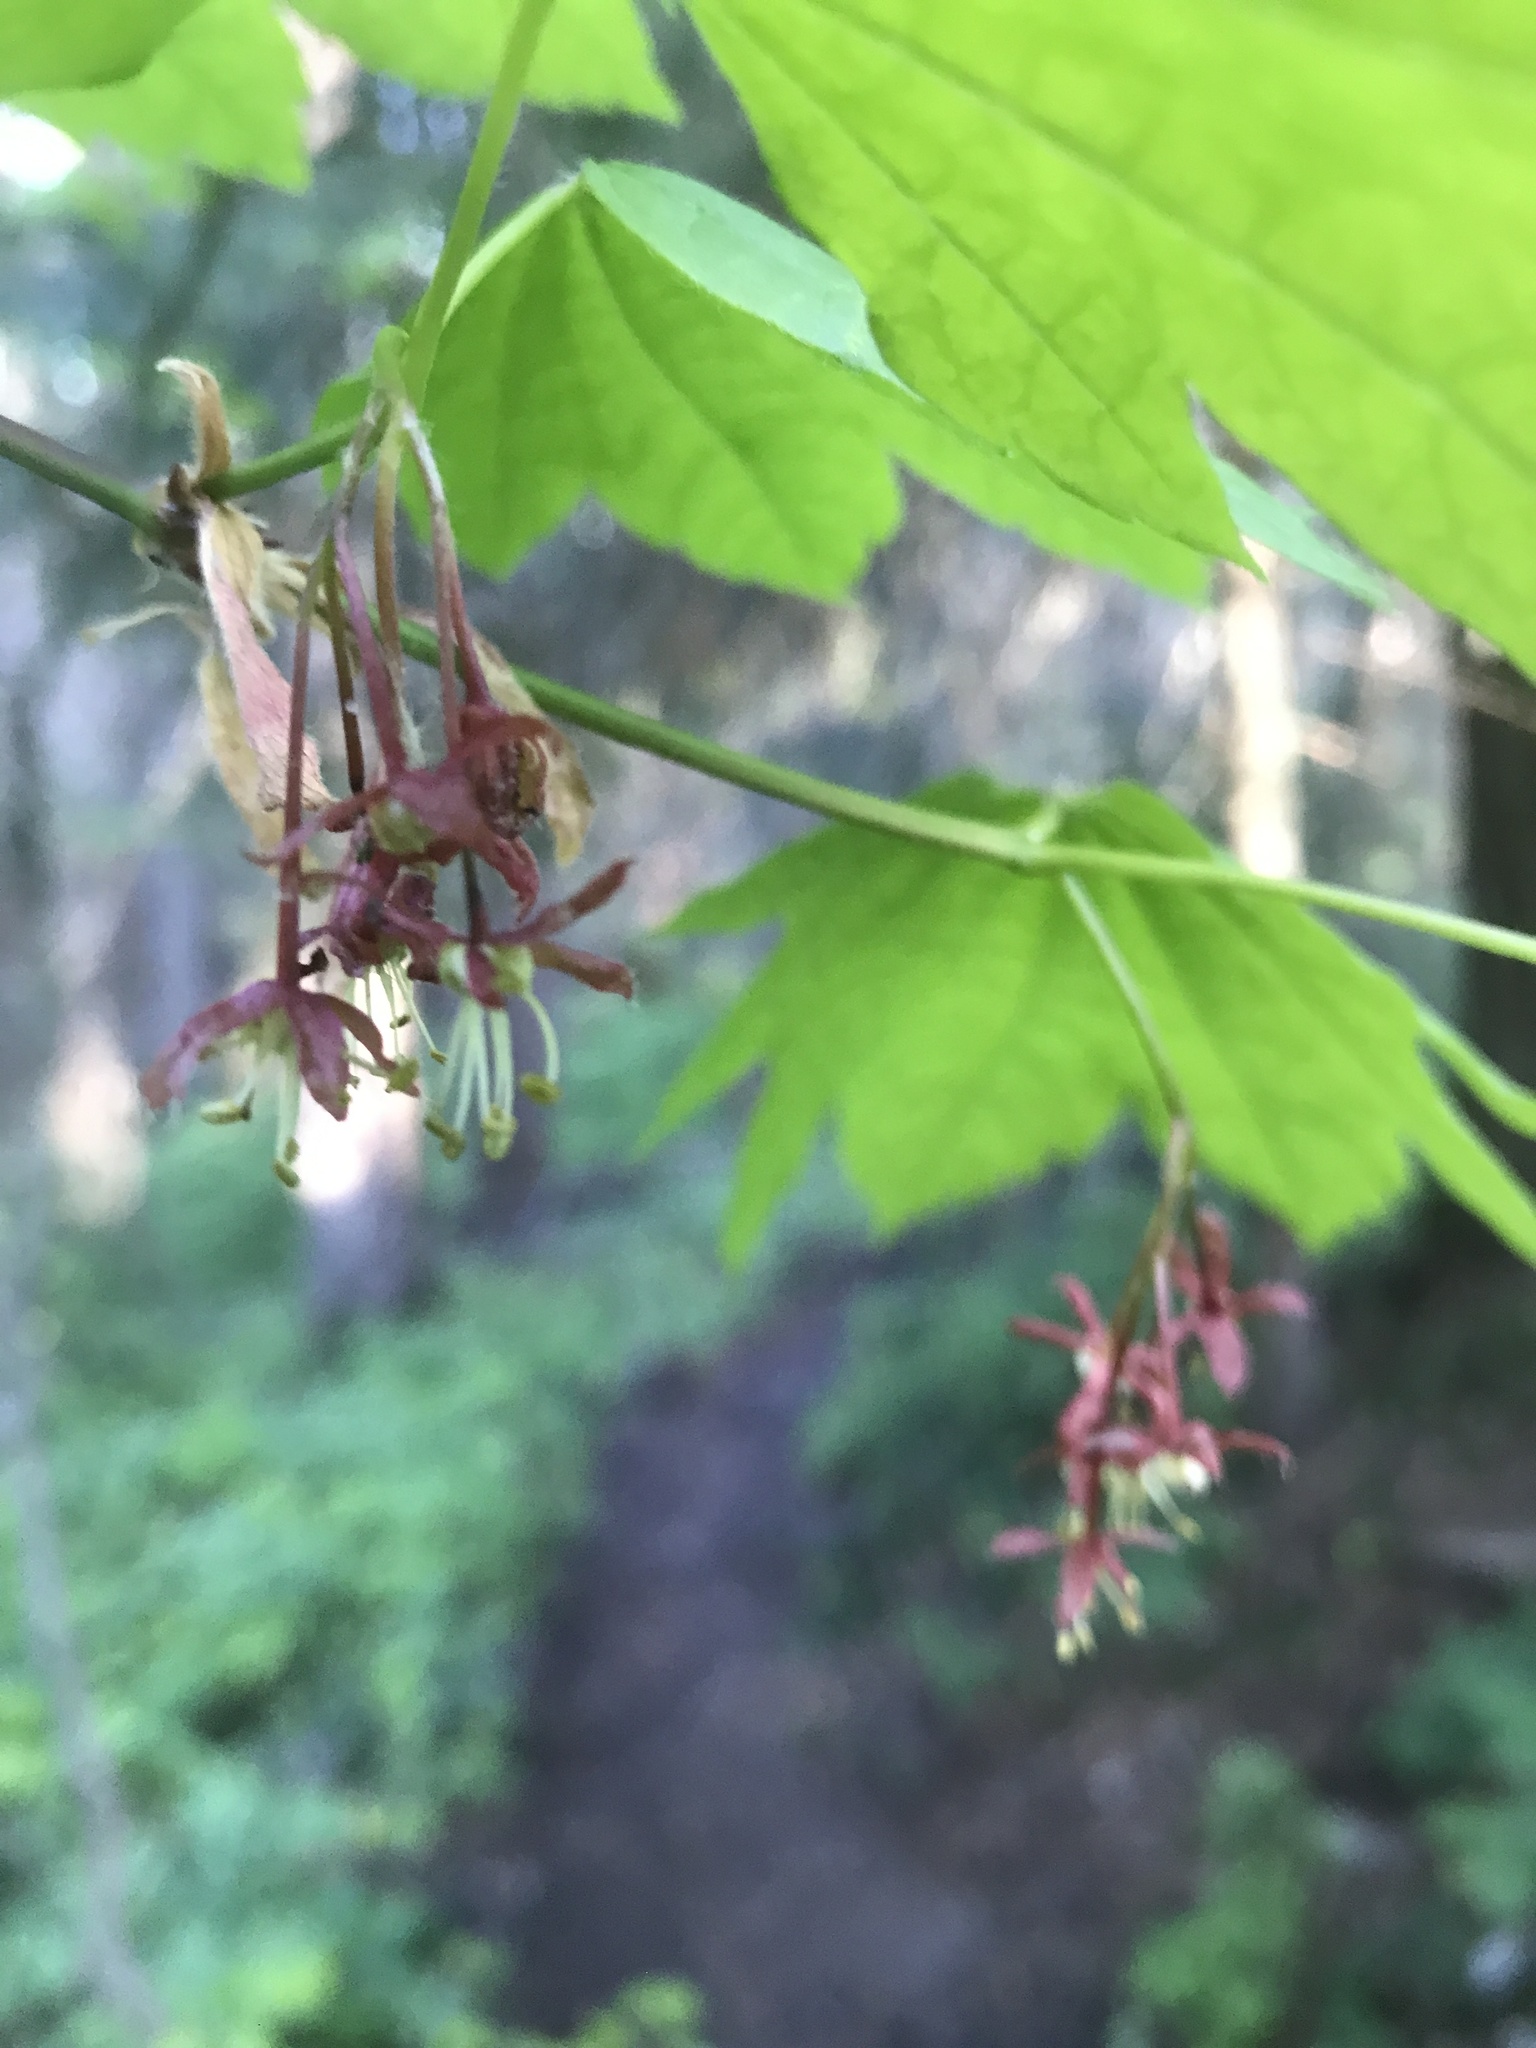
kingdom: Plantae
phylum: Tracheophyta
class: Magnoliopsida
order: Sapindales
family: Sapindaceae
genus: Acer
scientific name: Acer circinatum
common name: Vine maple
